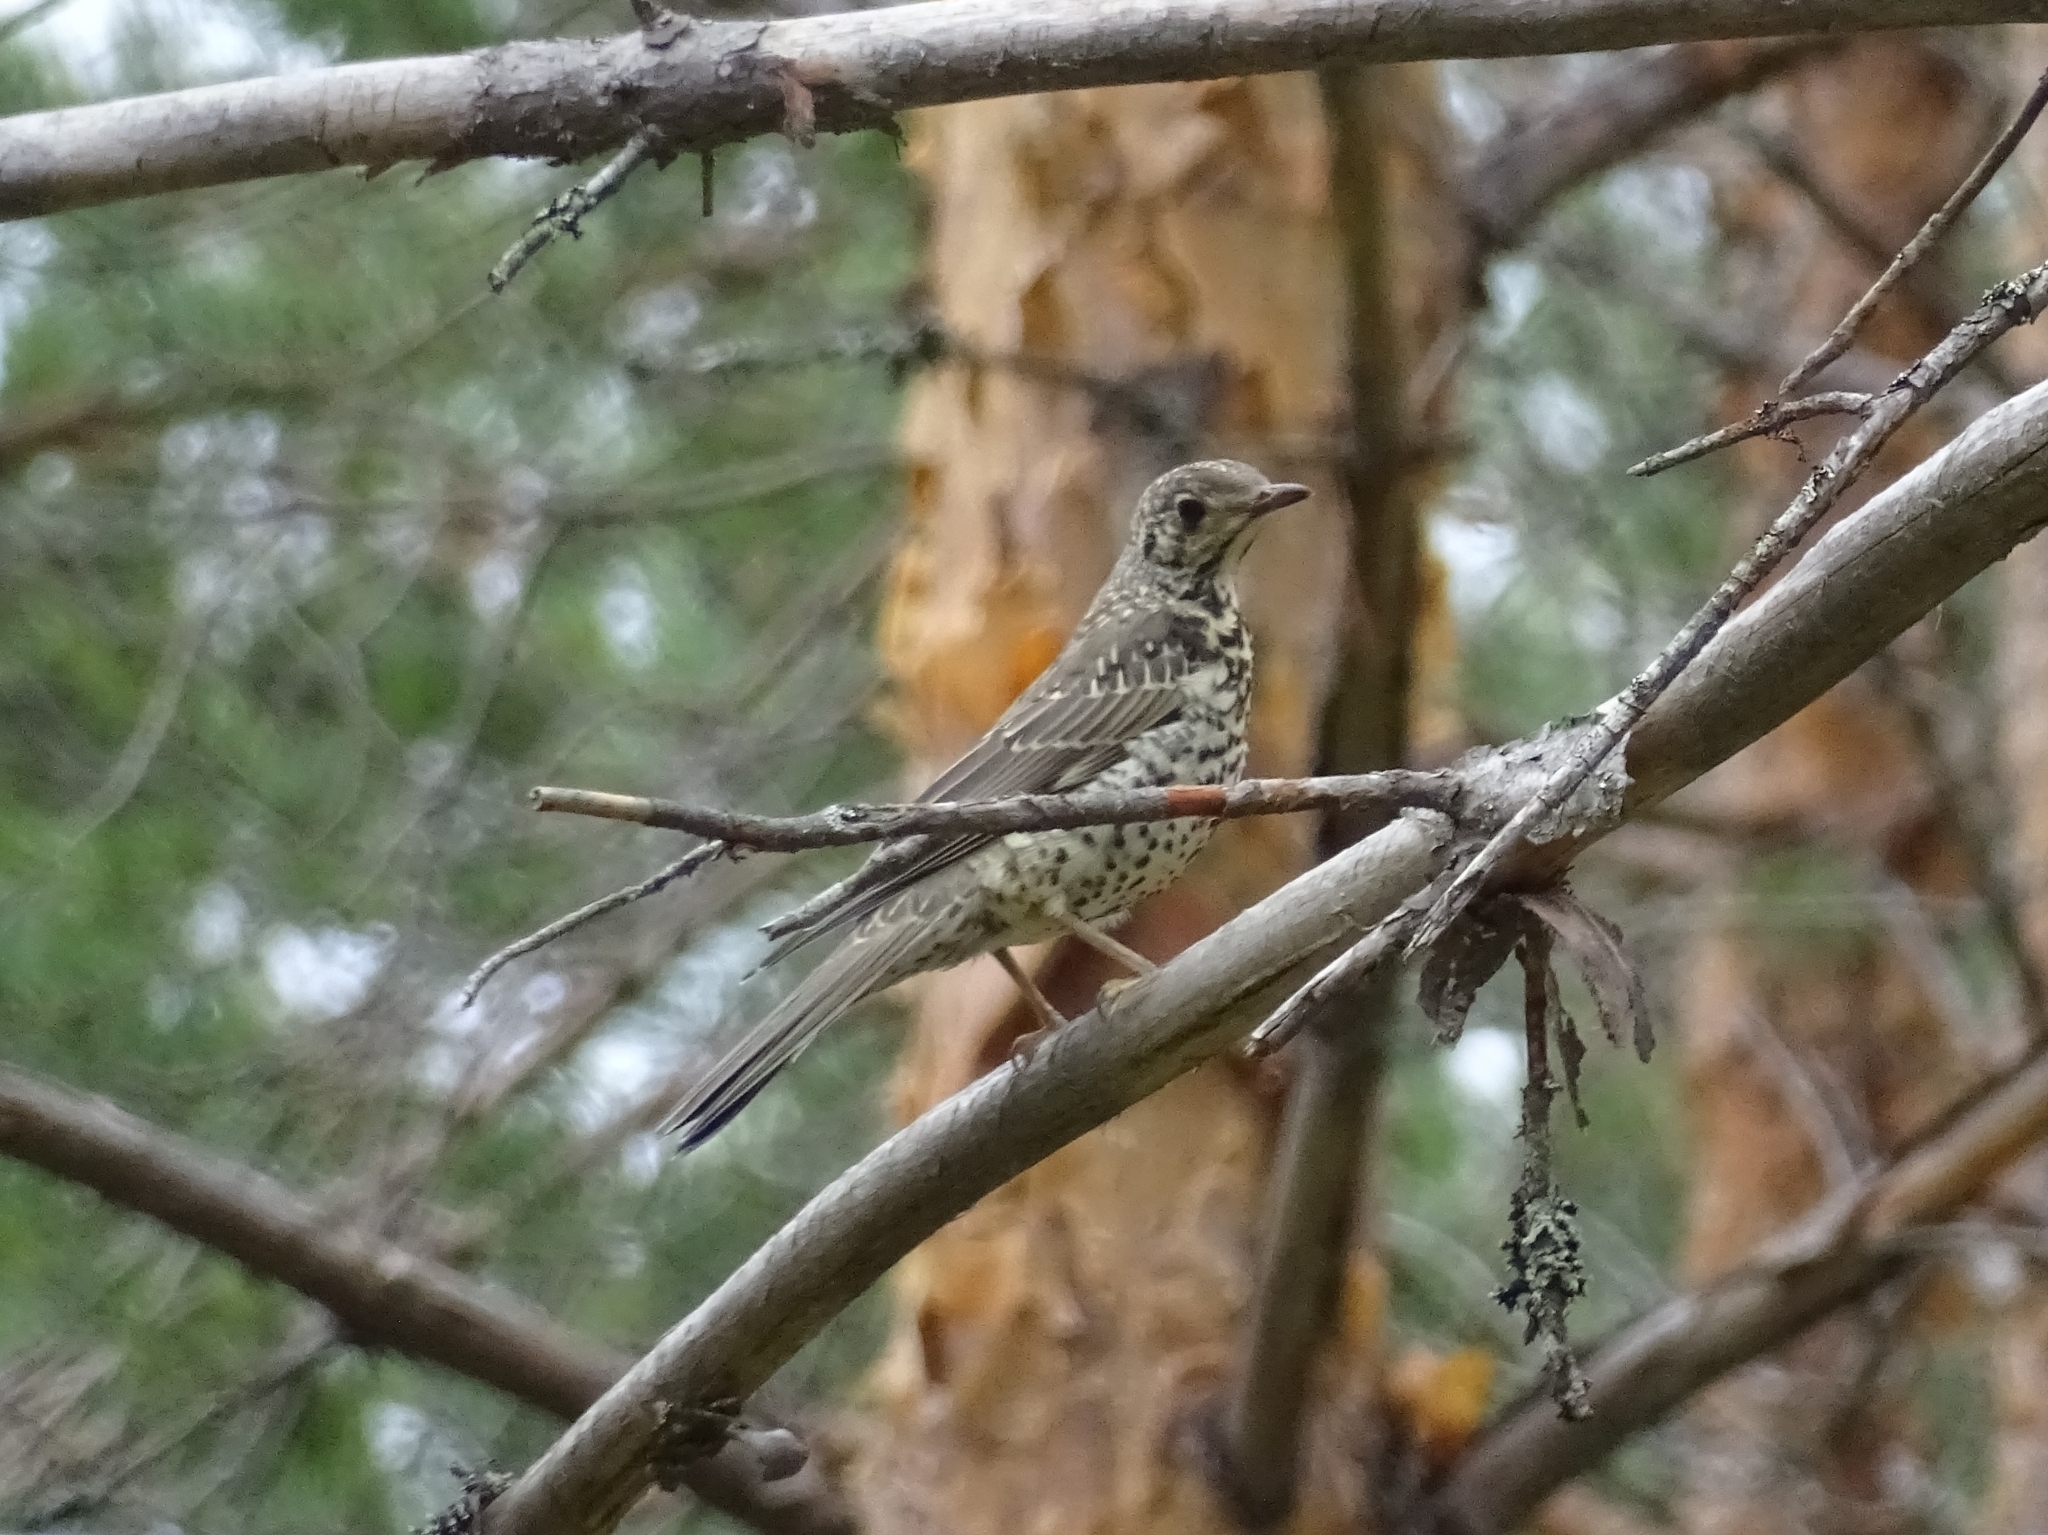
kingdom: Animalia
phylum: Chordata
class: Aves
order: Passeriformes
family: Turdidae
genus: Turdus
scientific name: Turdus viscivorus
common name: Mistle thrush
